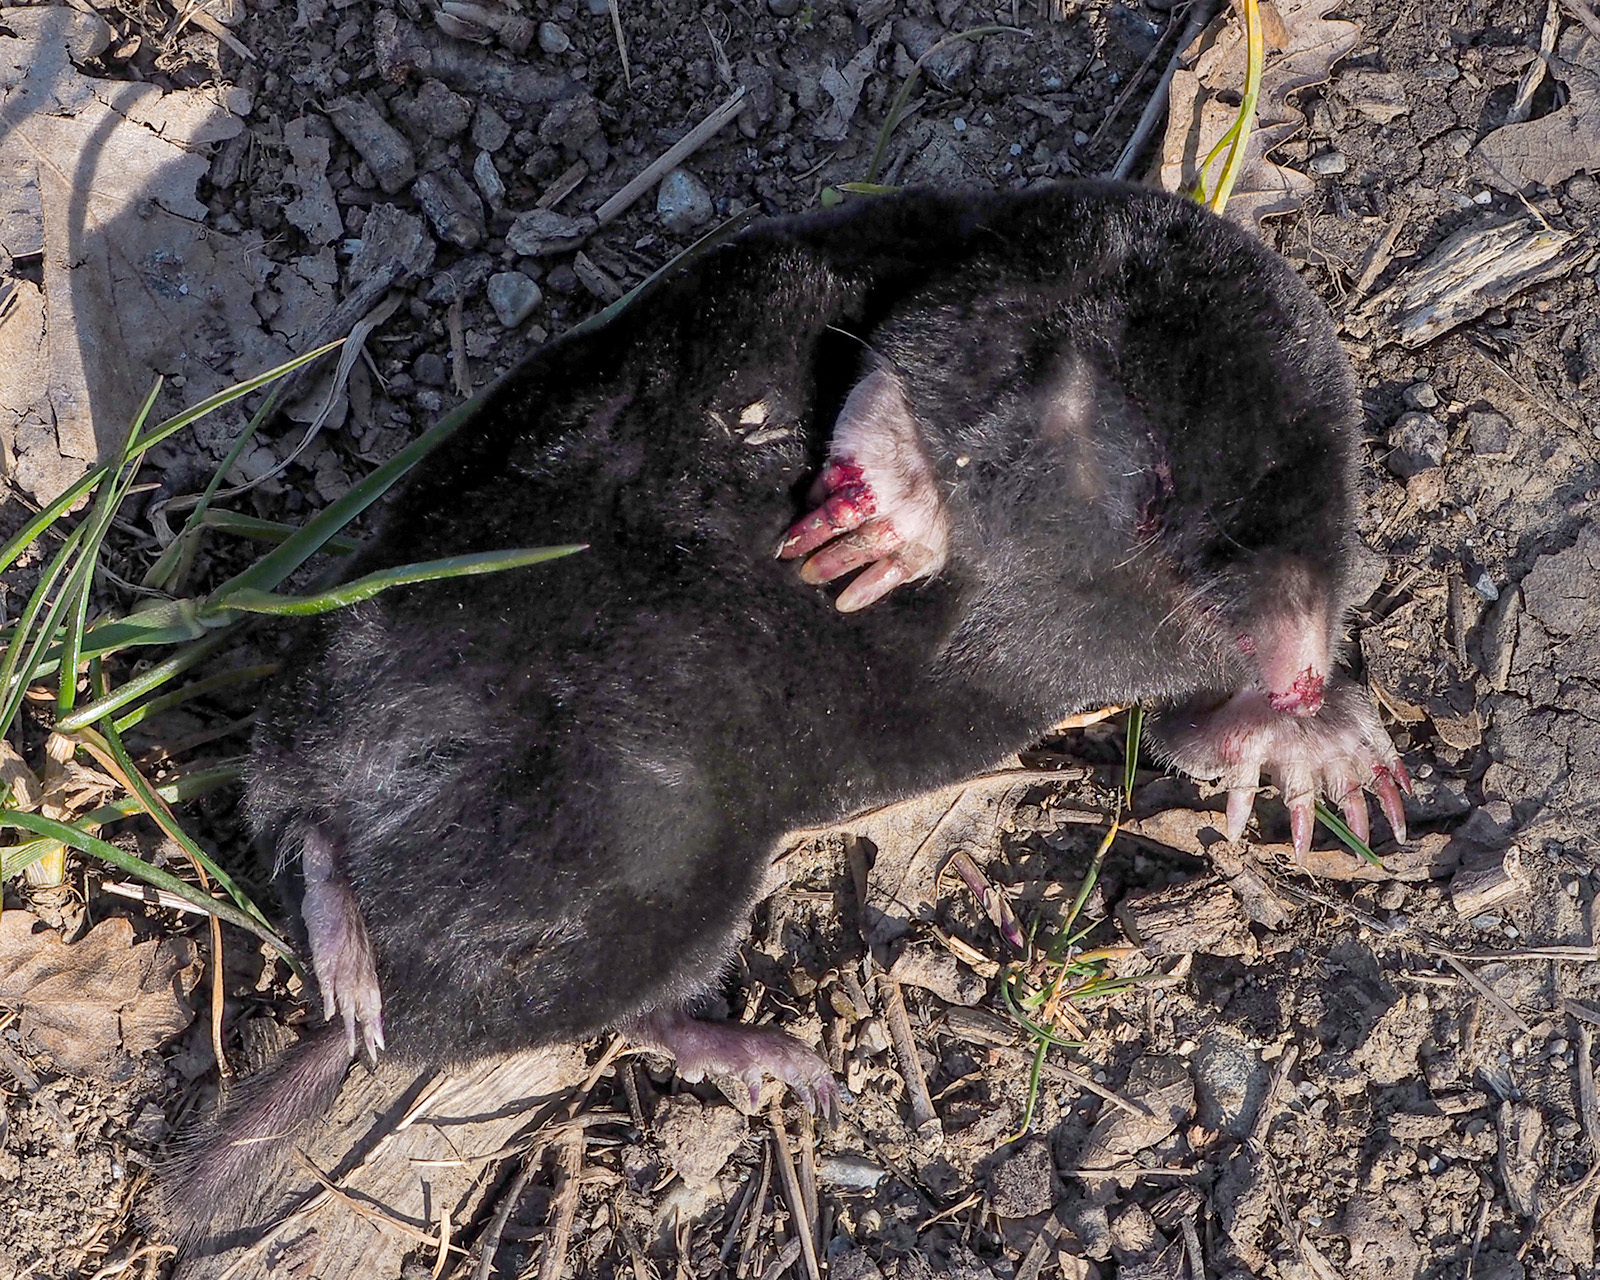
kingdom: Animalia
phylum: Chordata
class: Mammalia
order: Soricomorpha
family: Talpidae
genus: Talpa
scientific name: Talpa romana
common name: Roman mole
